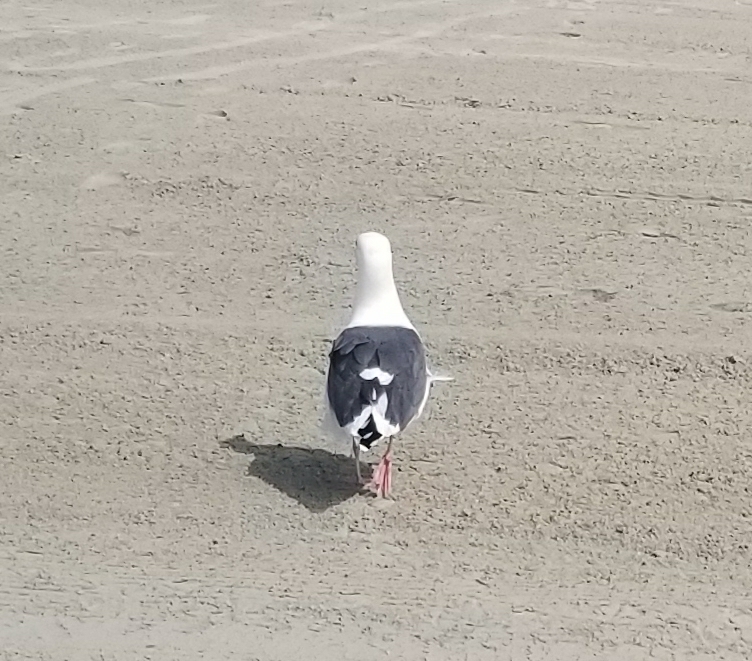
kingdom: Animalia
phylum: Chordata
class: Aves
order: Charadriiformes
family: Laridae
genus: Larus
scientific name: Larus occidentalis
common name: Western gull
